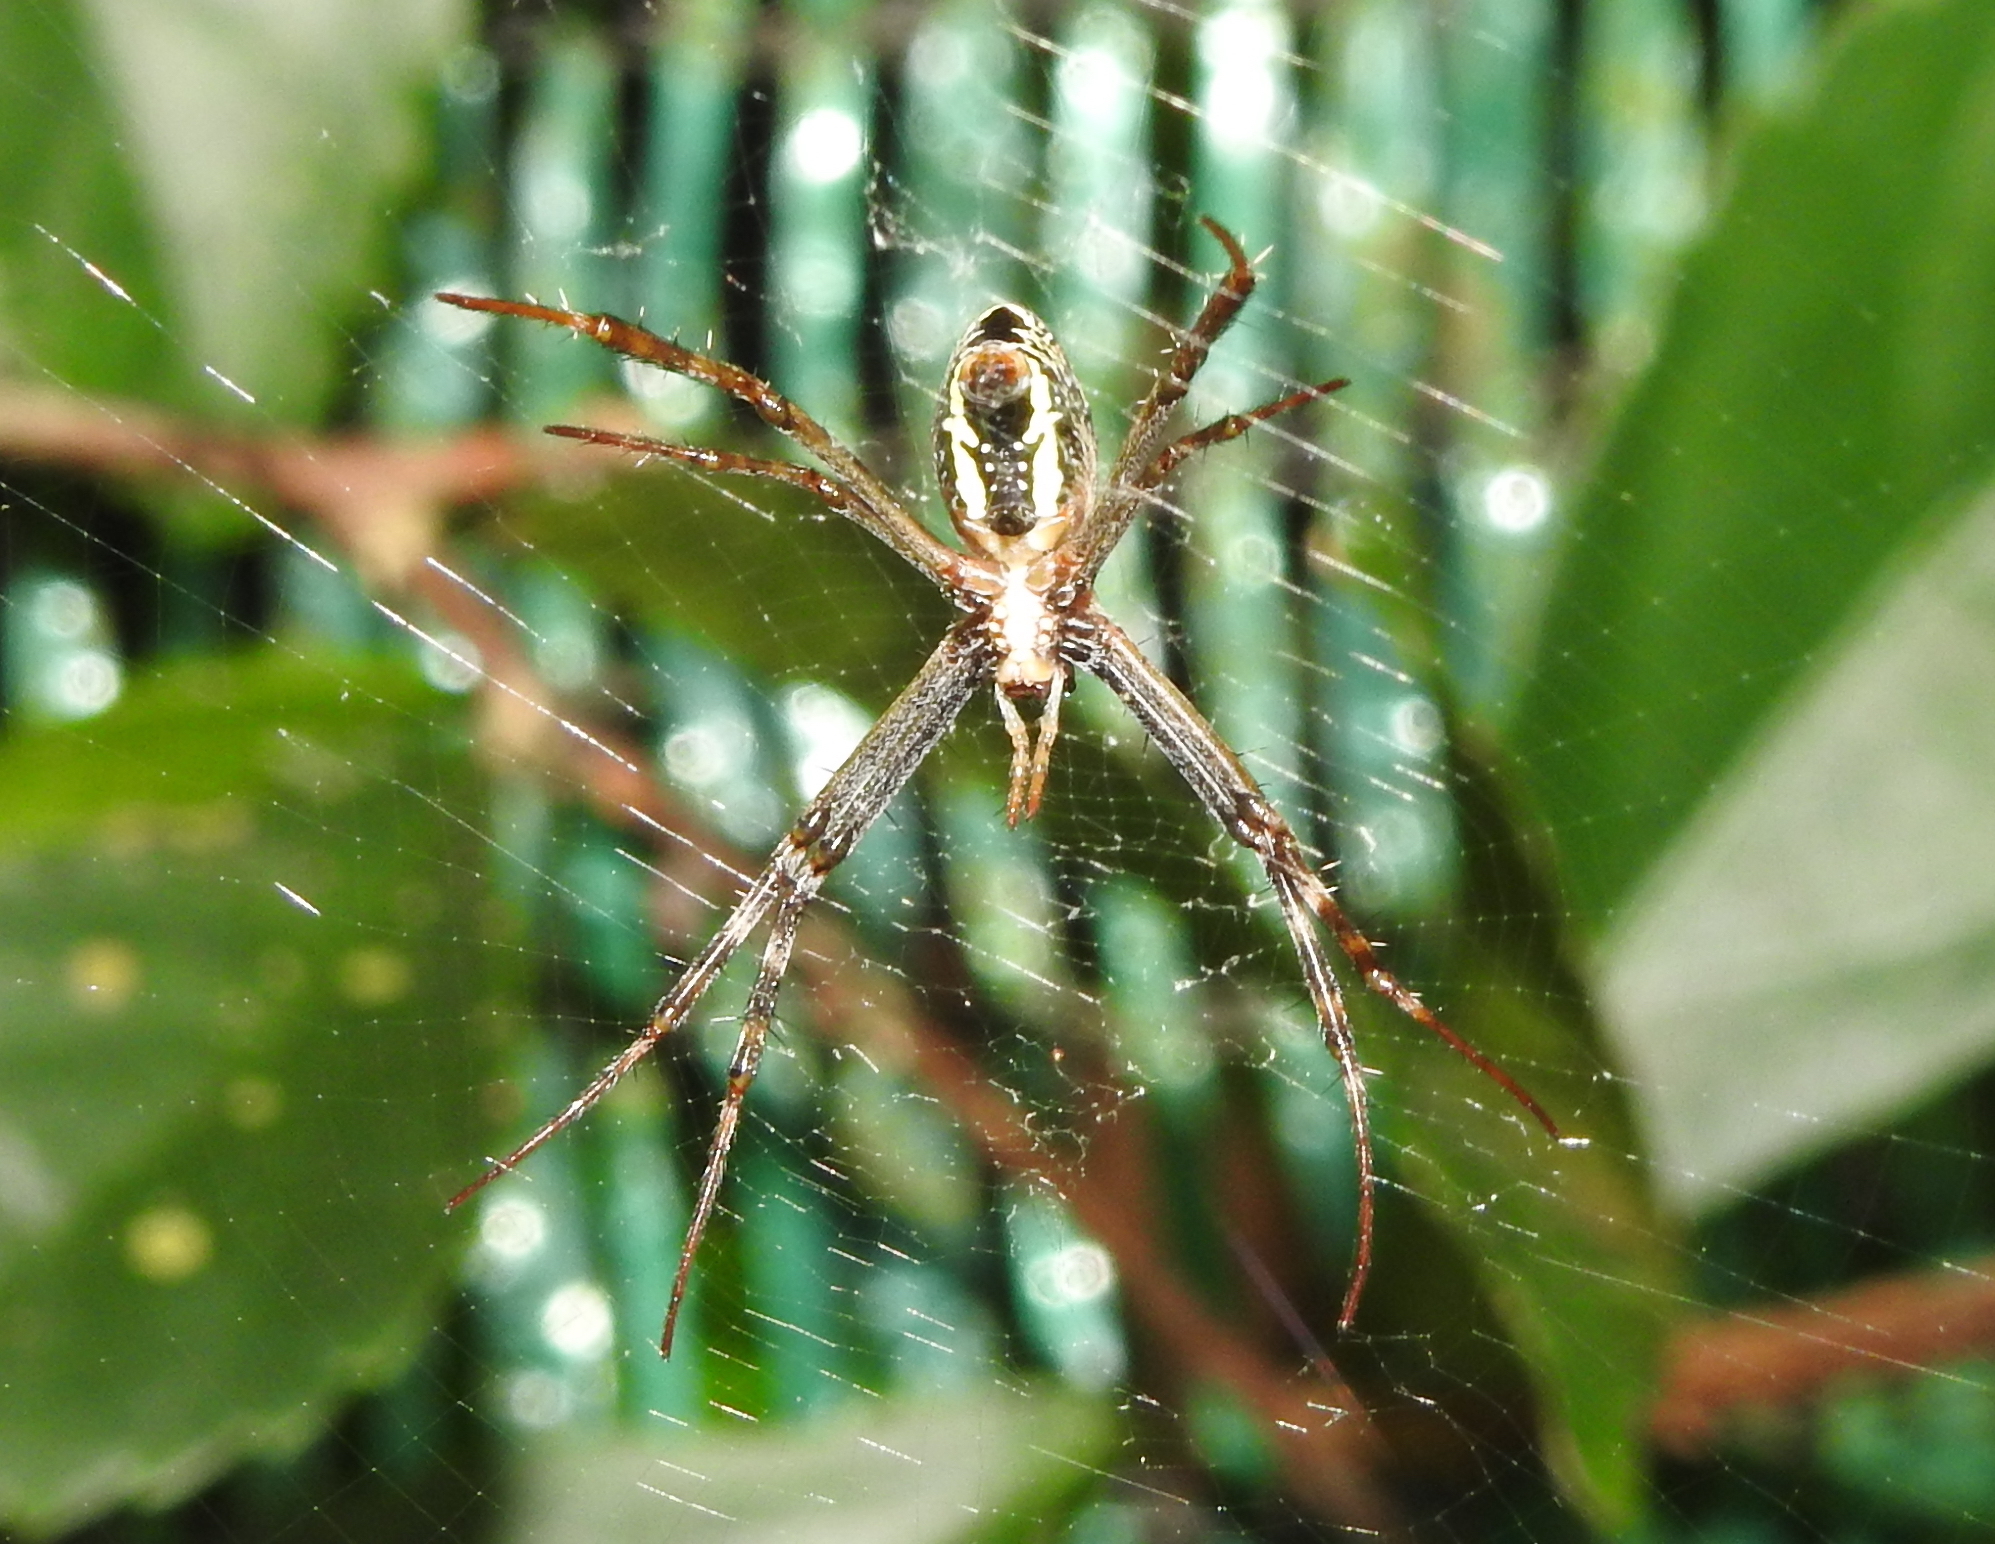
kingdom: Animalia
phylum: Arthropoda
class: Arachnida
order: Araneae
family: Araneidae
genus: Argiope
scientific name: Argiope dang
